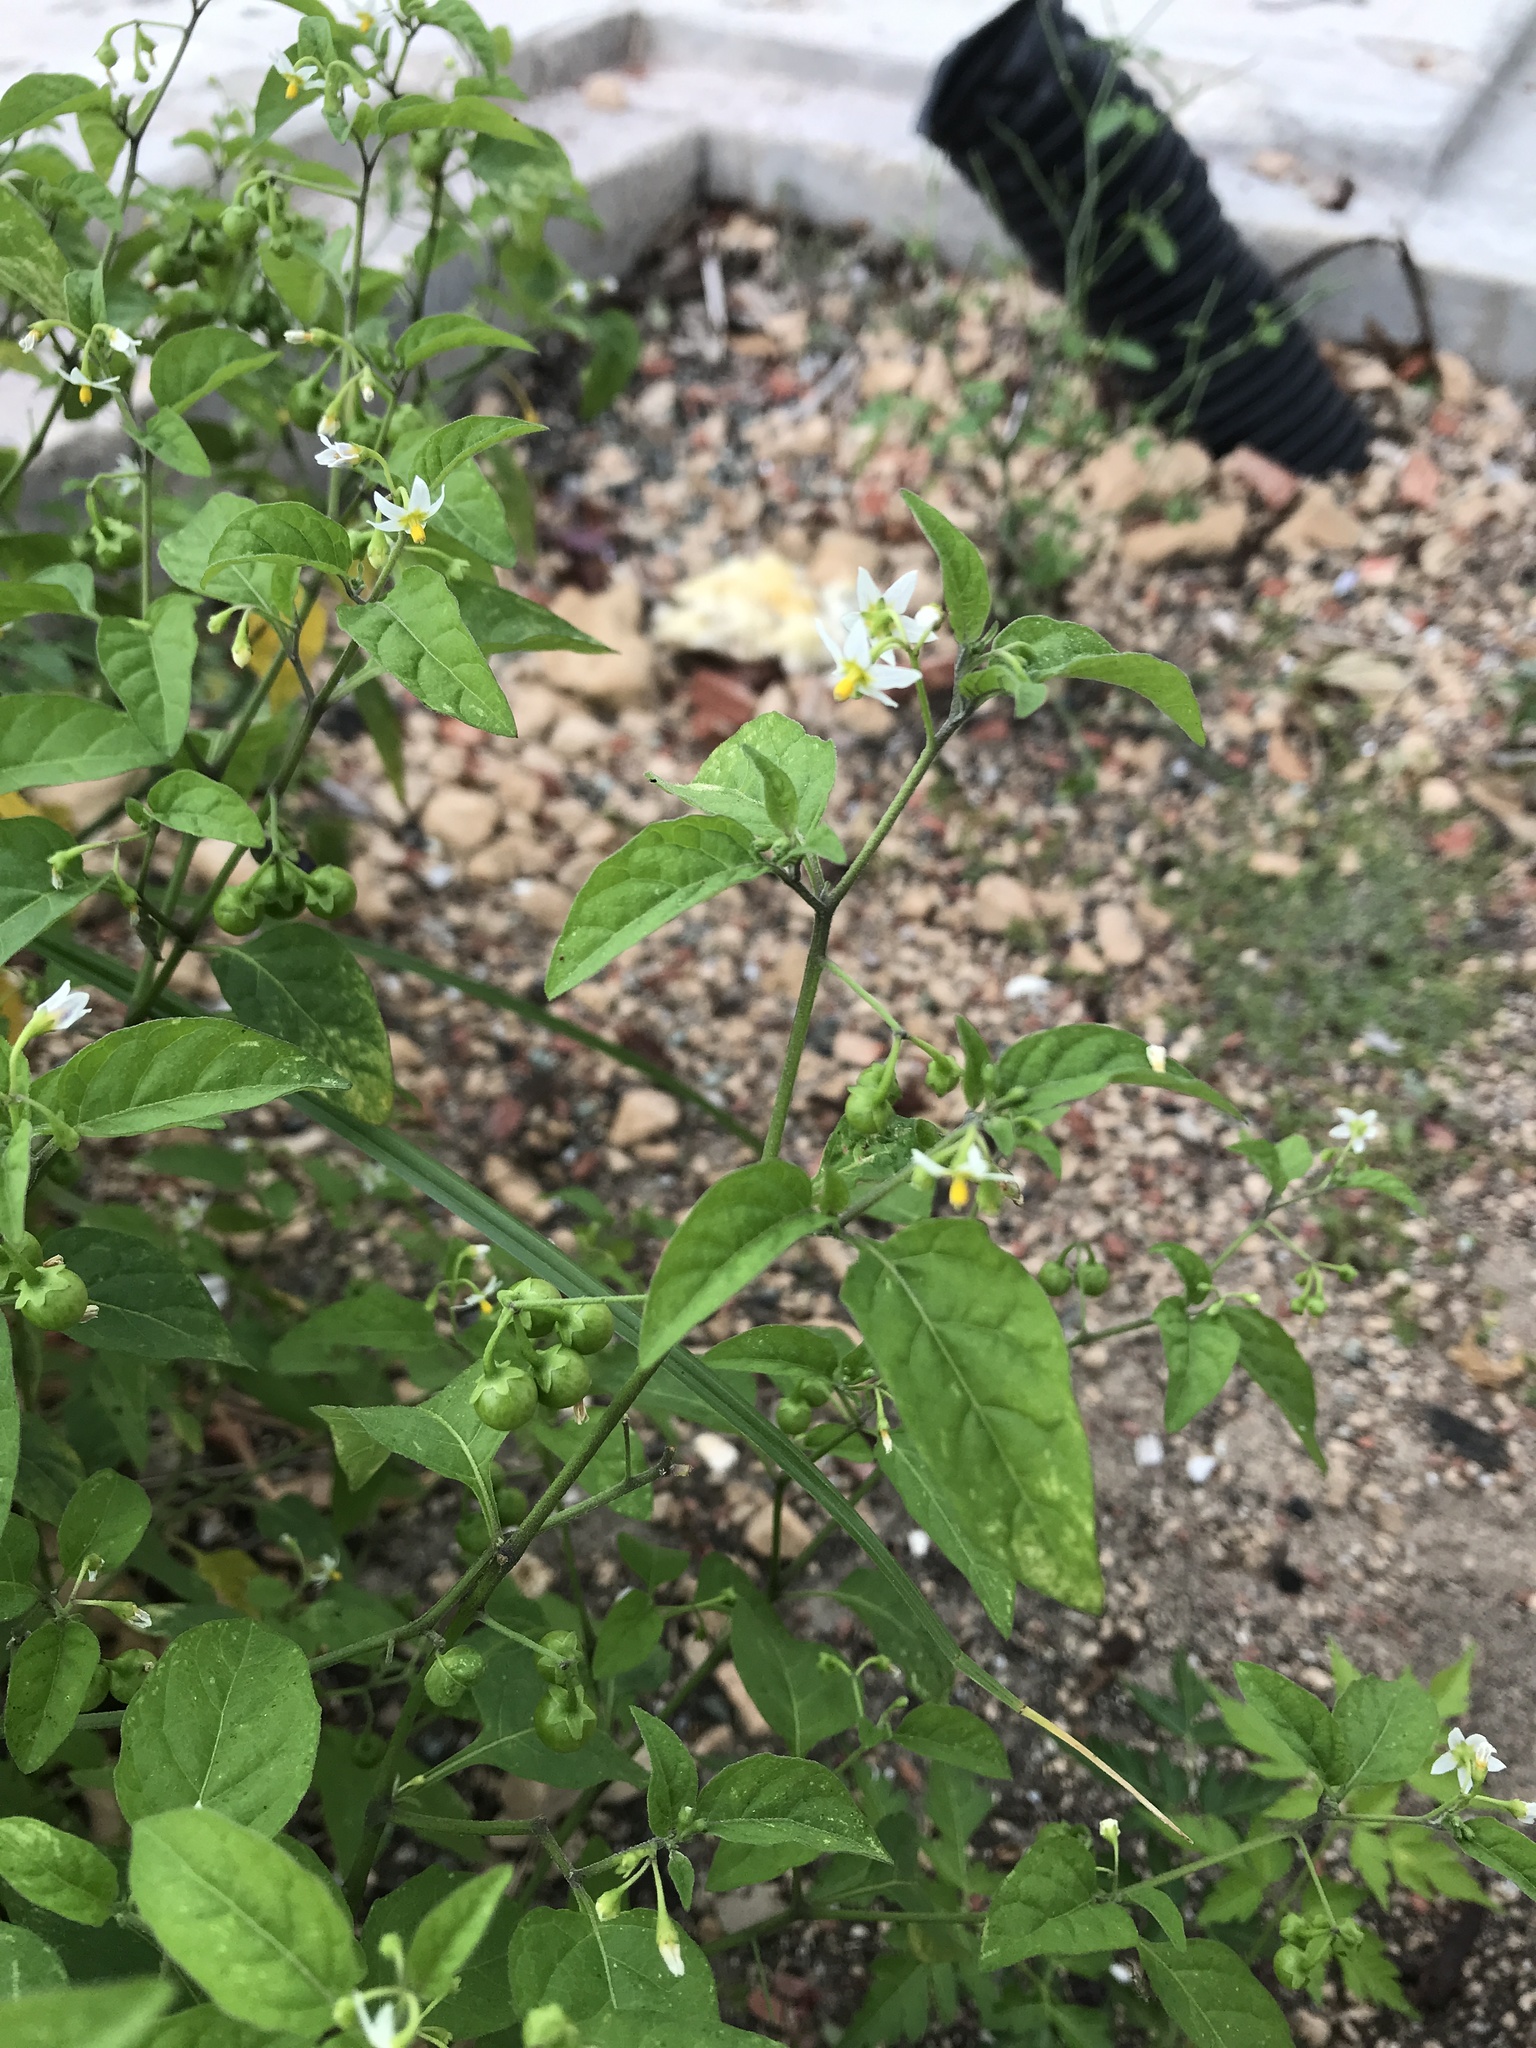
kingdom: Plantae
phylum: Tracheophyta
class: Magnoliopsida
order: Solanales
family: Solanaceae
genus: Solanum
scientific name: Solanum emulans
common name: Eastern black nightshade
